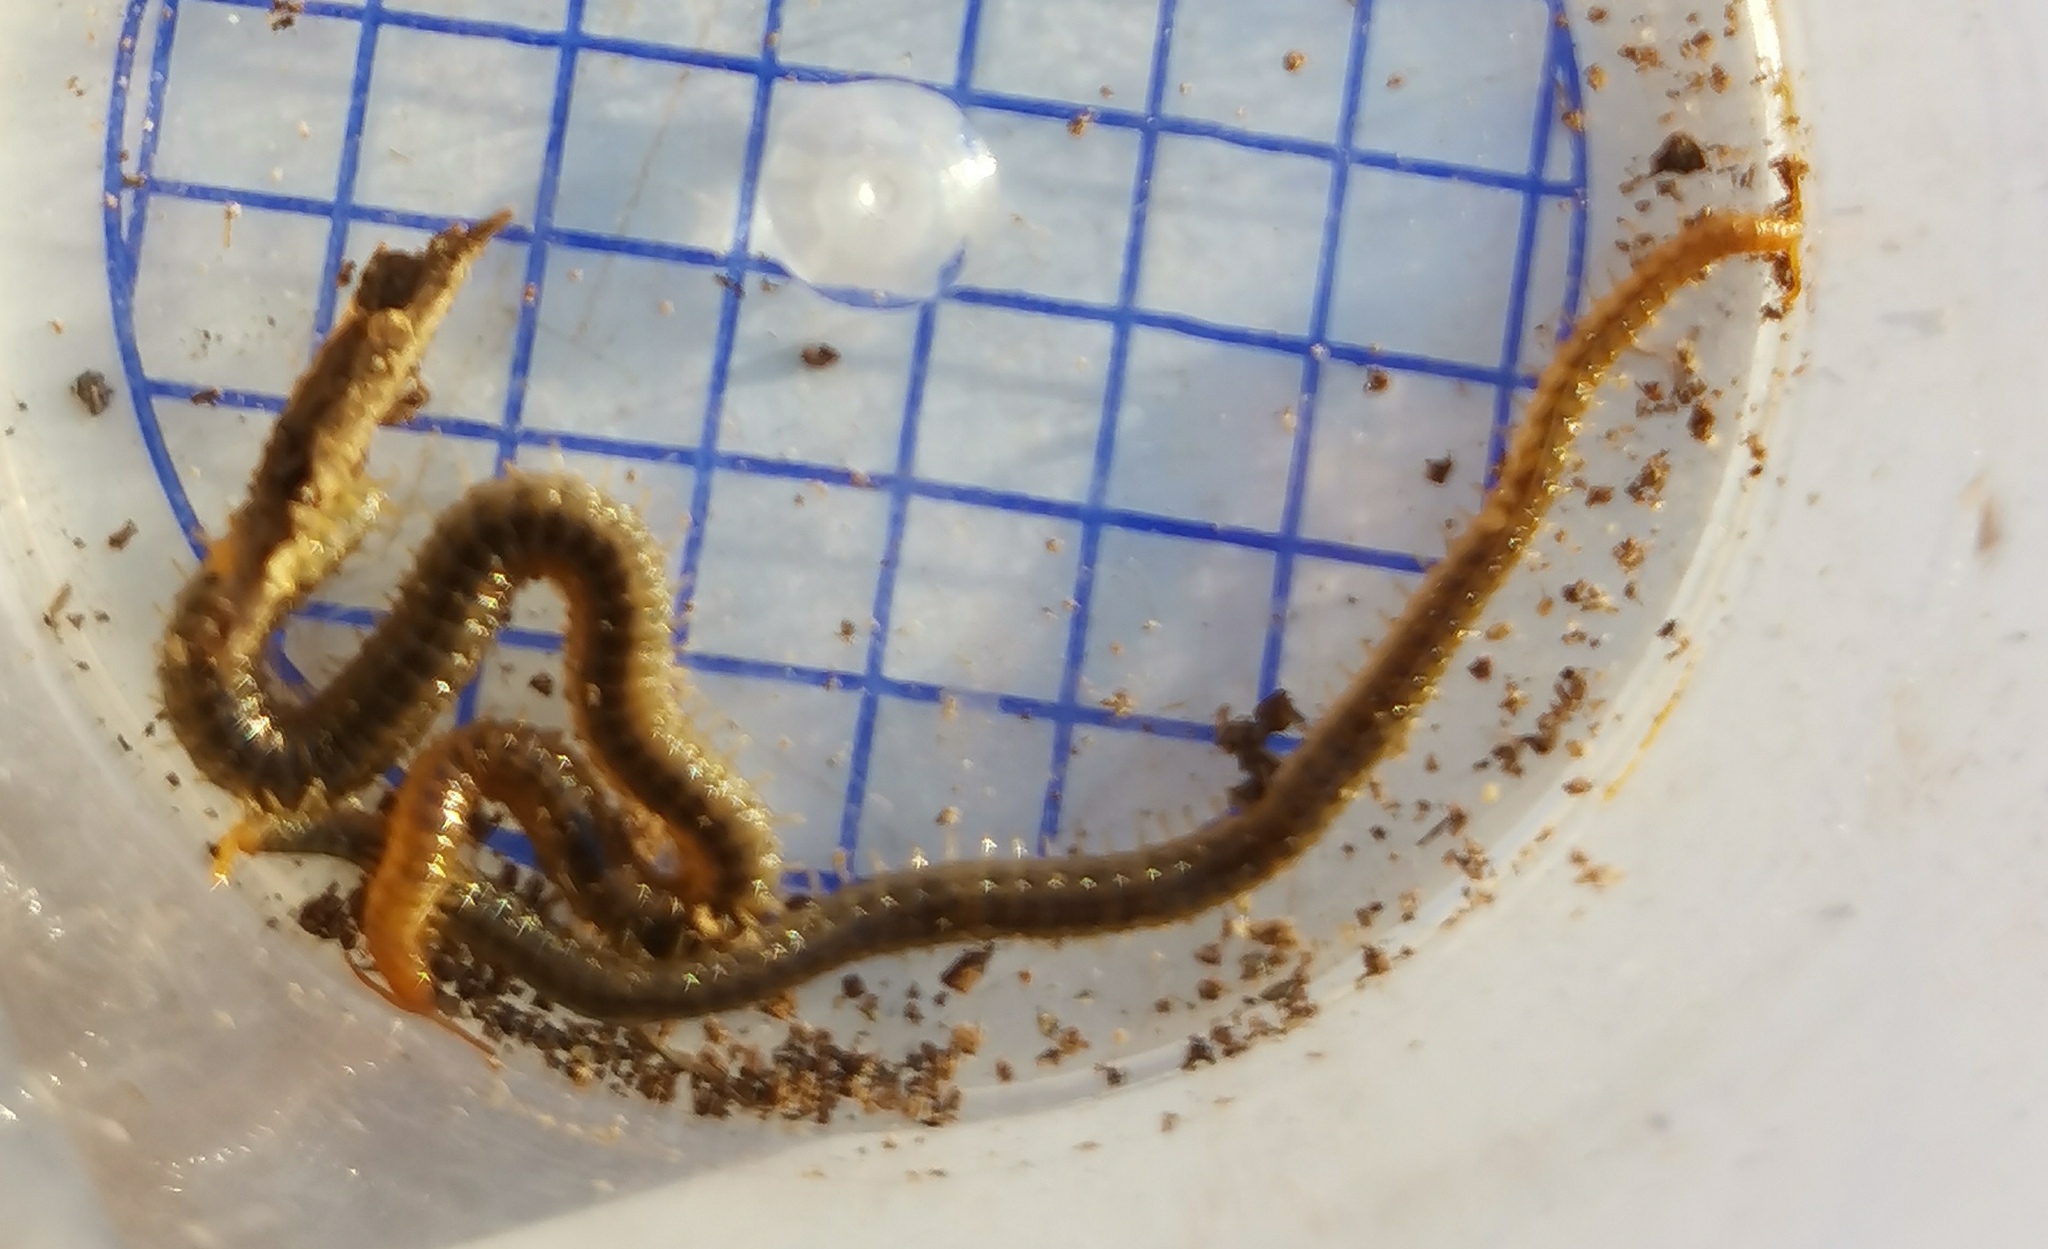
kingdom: Animalia
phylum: Arthropoda
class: Chilopoda
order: Geophilomorpha
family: Dignathodontidae
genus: Henia
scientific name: Henia vesuviana
